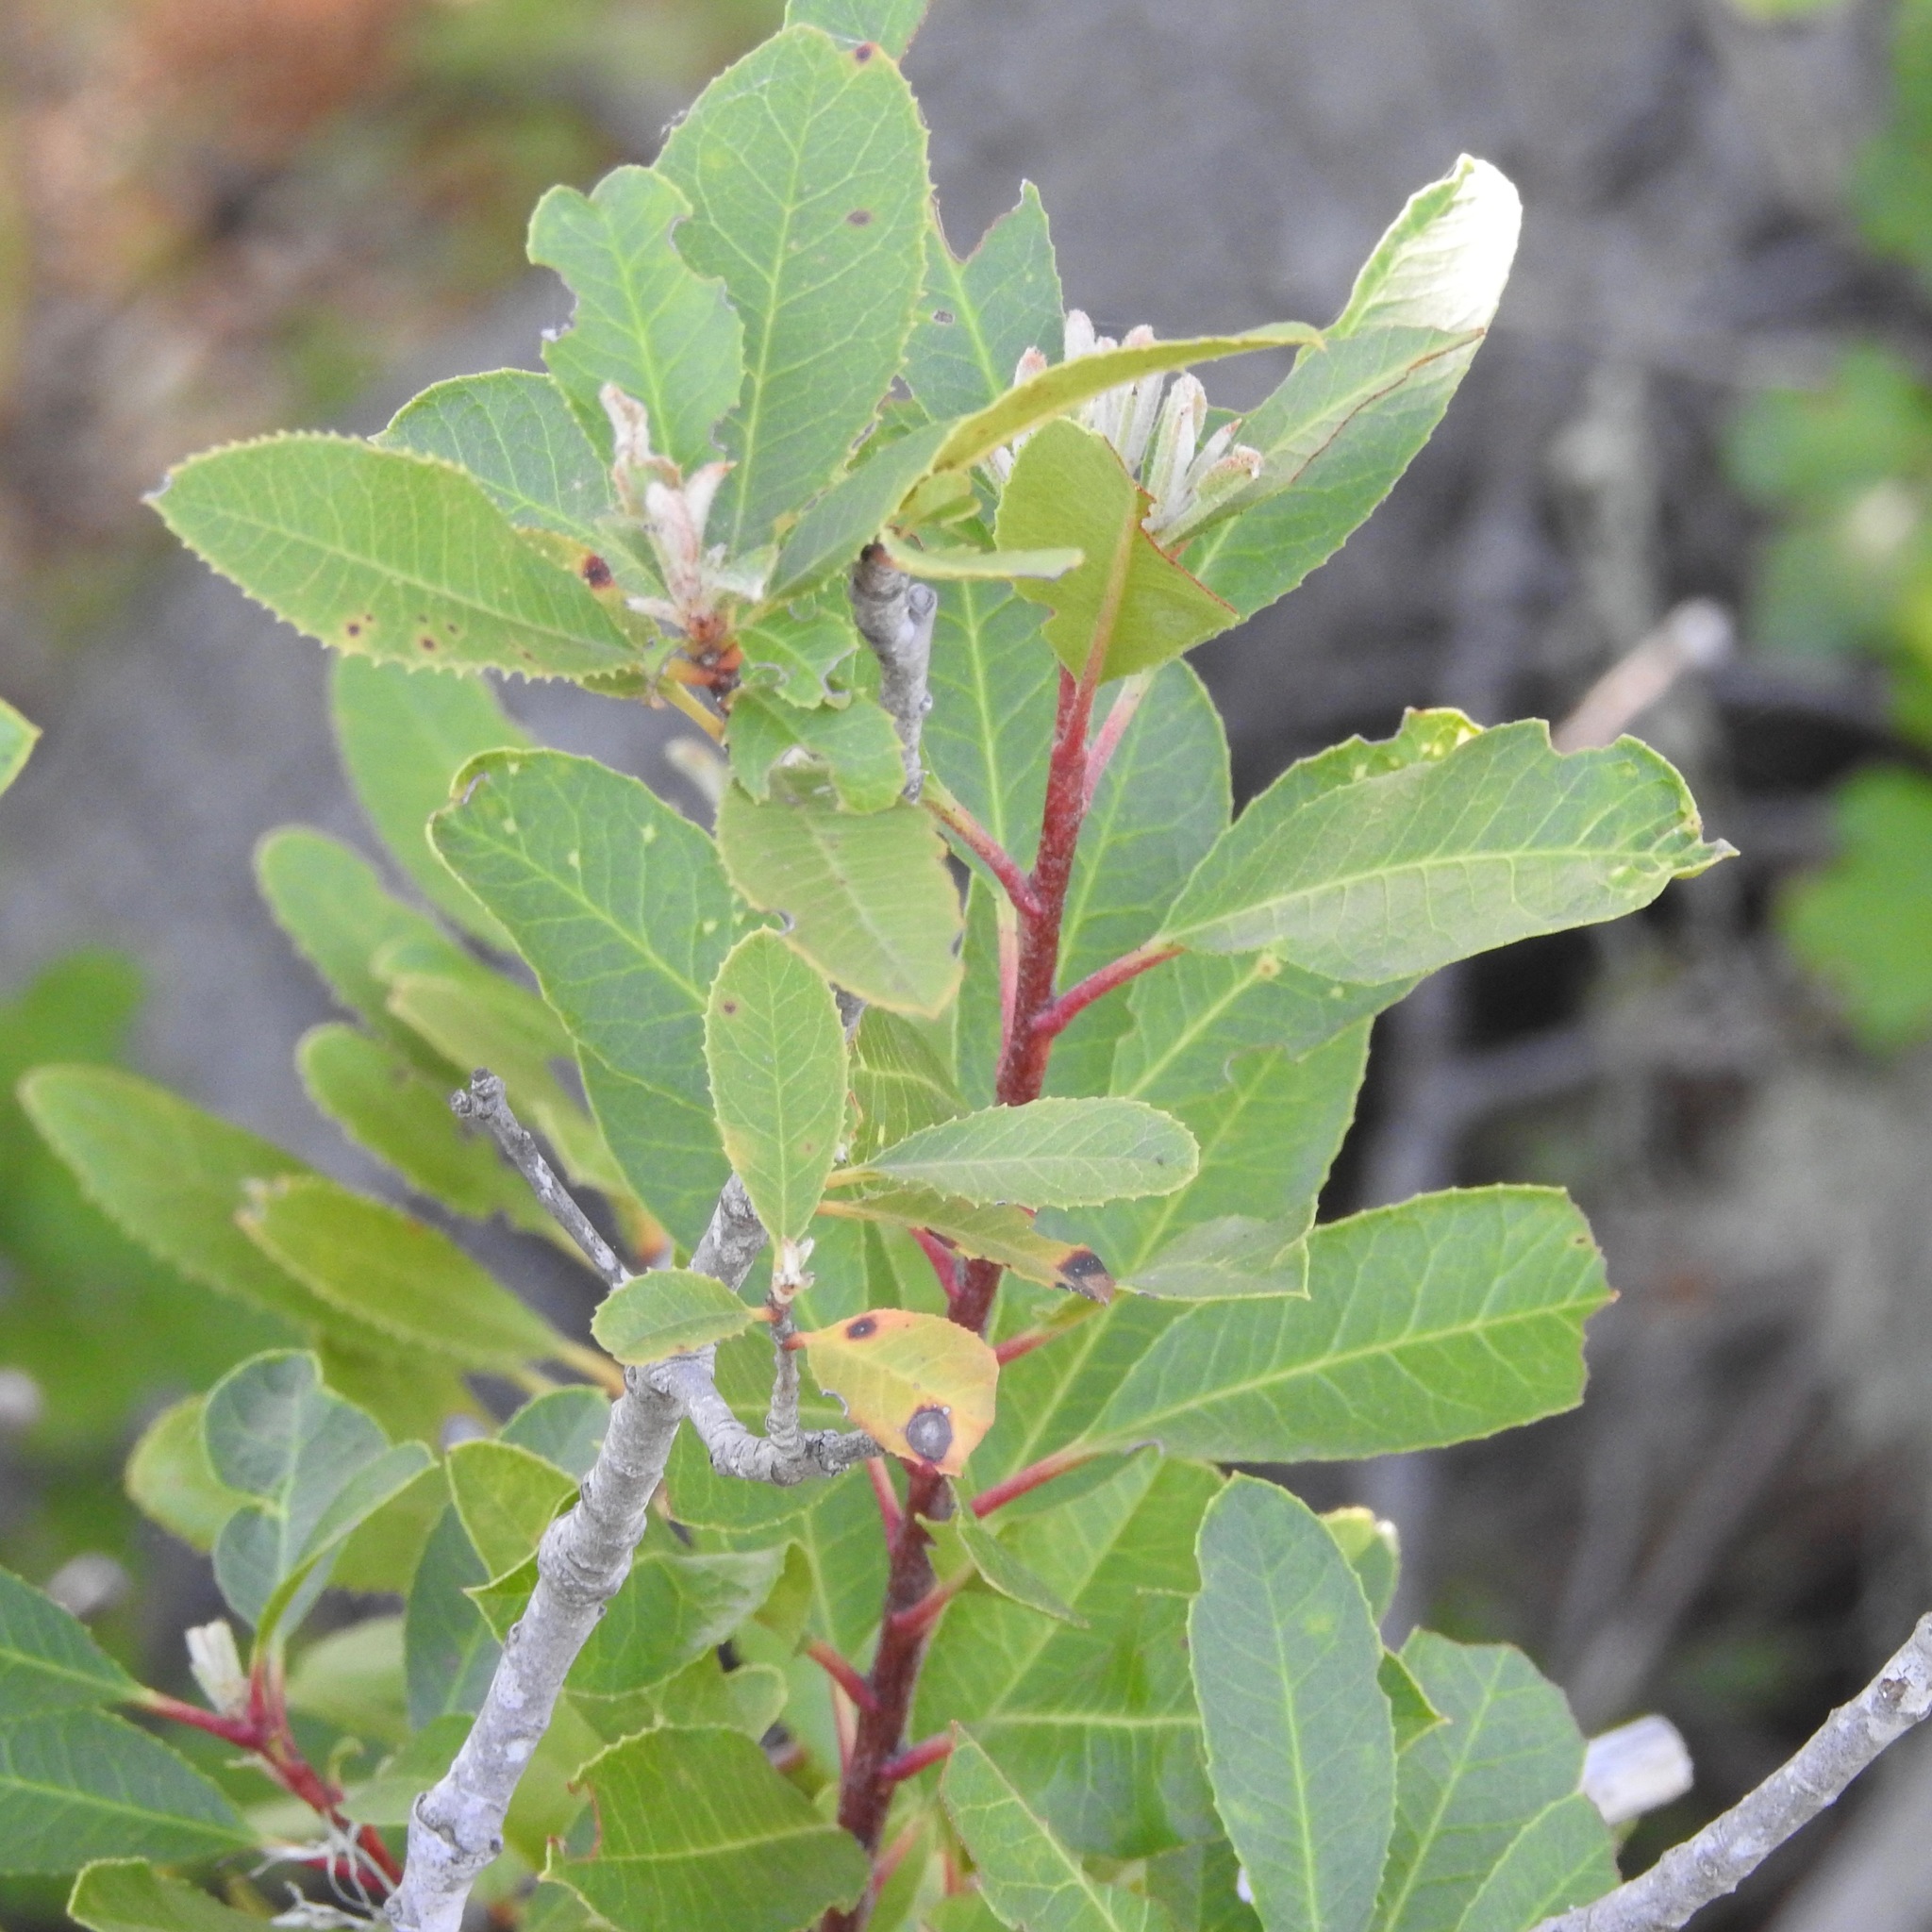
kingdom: Plantae
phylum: Tracheophyta
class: Magnoliopsida
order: Rosales
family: Rosaceae
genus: Heteromeles
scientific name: Heteromeles arbutifolia
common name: California-holly
